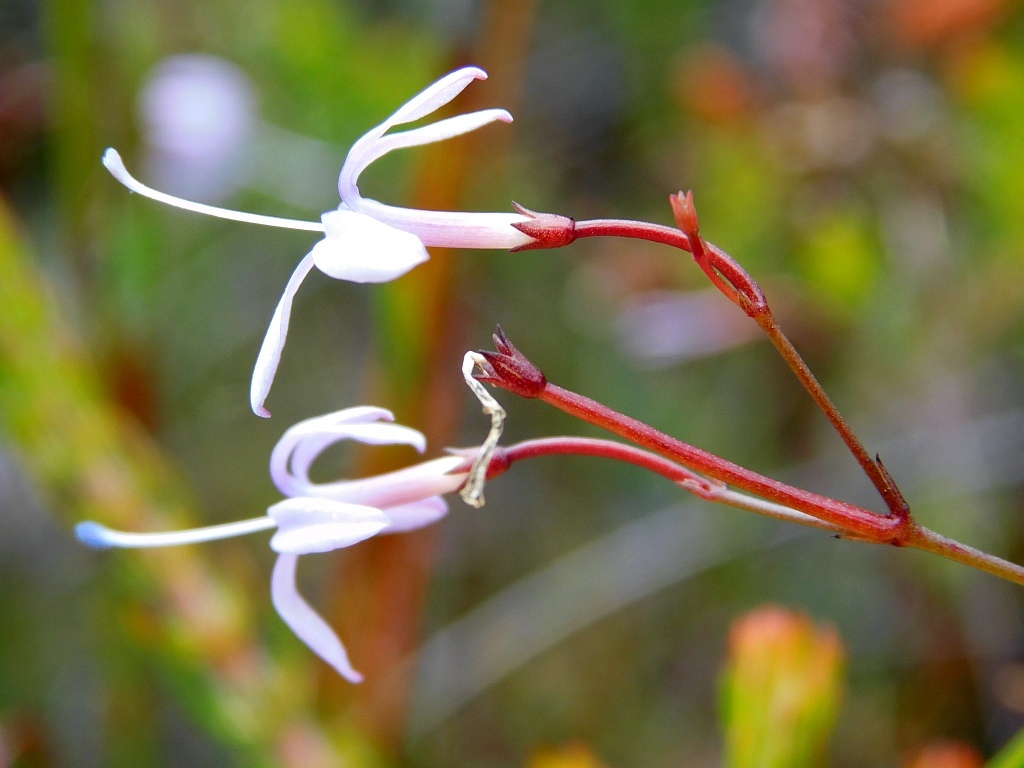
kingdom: Plantae
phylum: Tracheophyta
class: Magnoliopsida
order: Asterales
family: Campanulaceae
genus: Prismatocarpus
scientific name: Prismatocarpus diffusus
